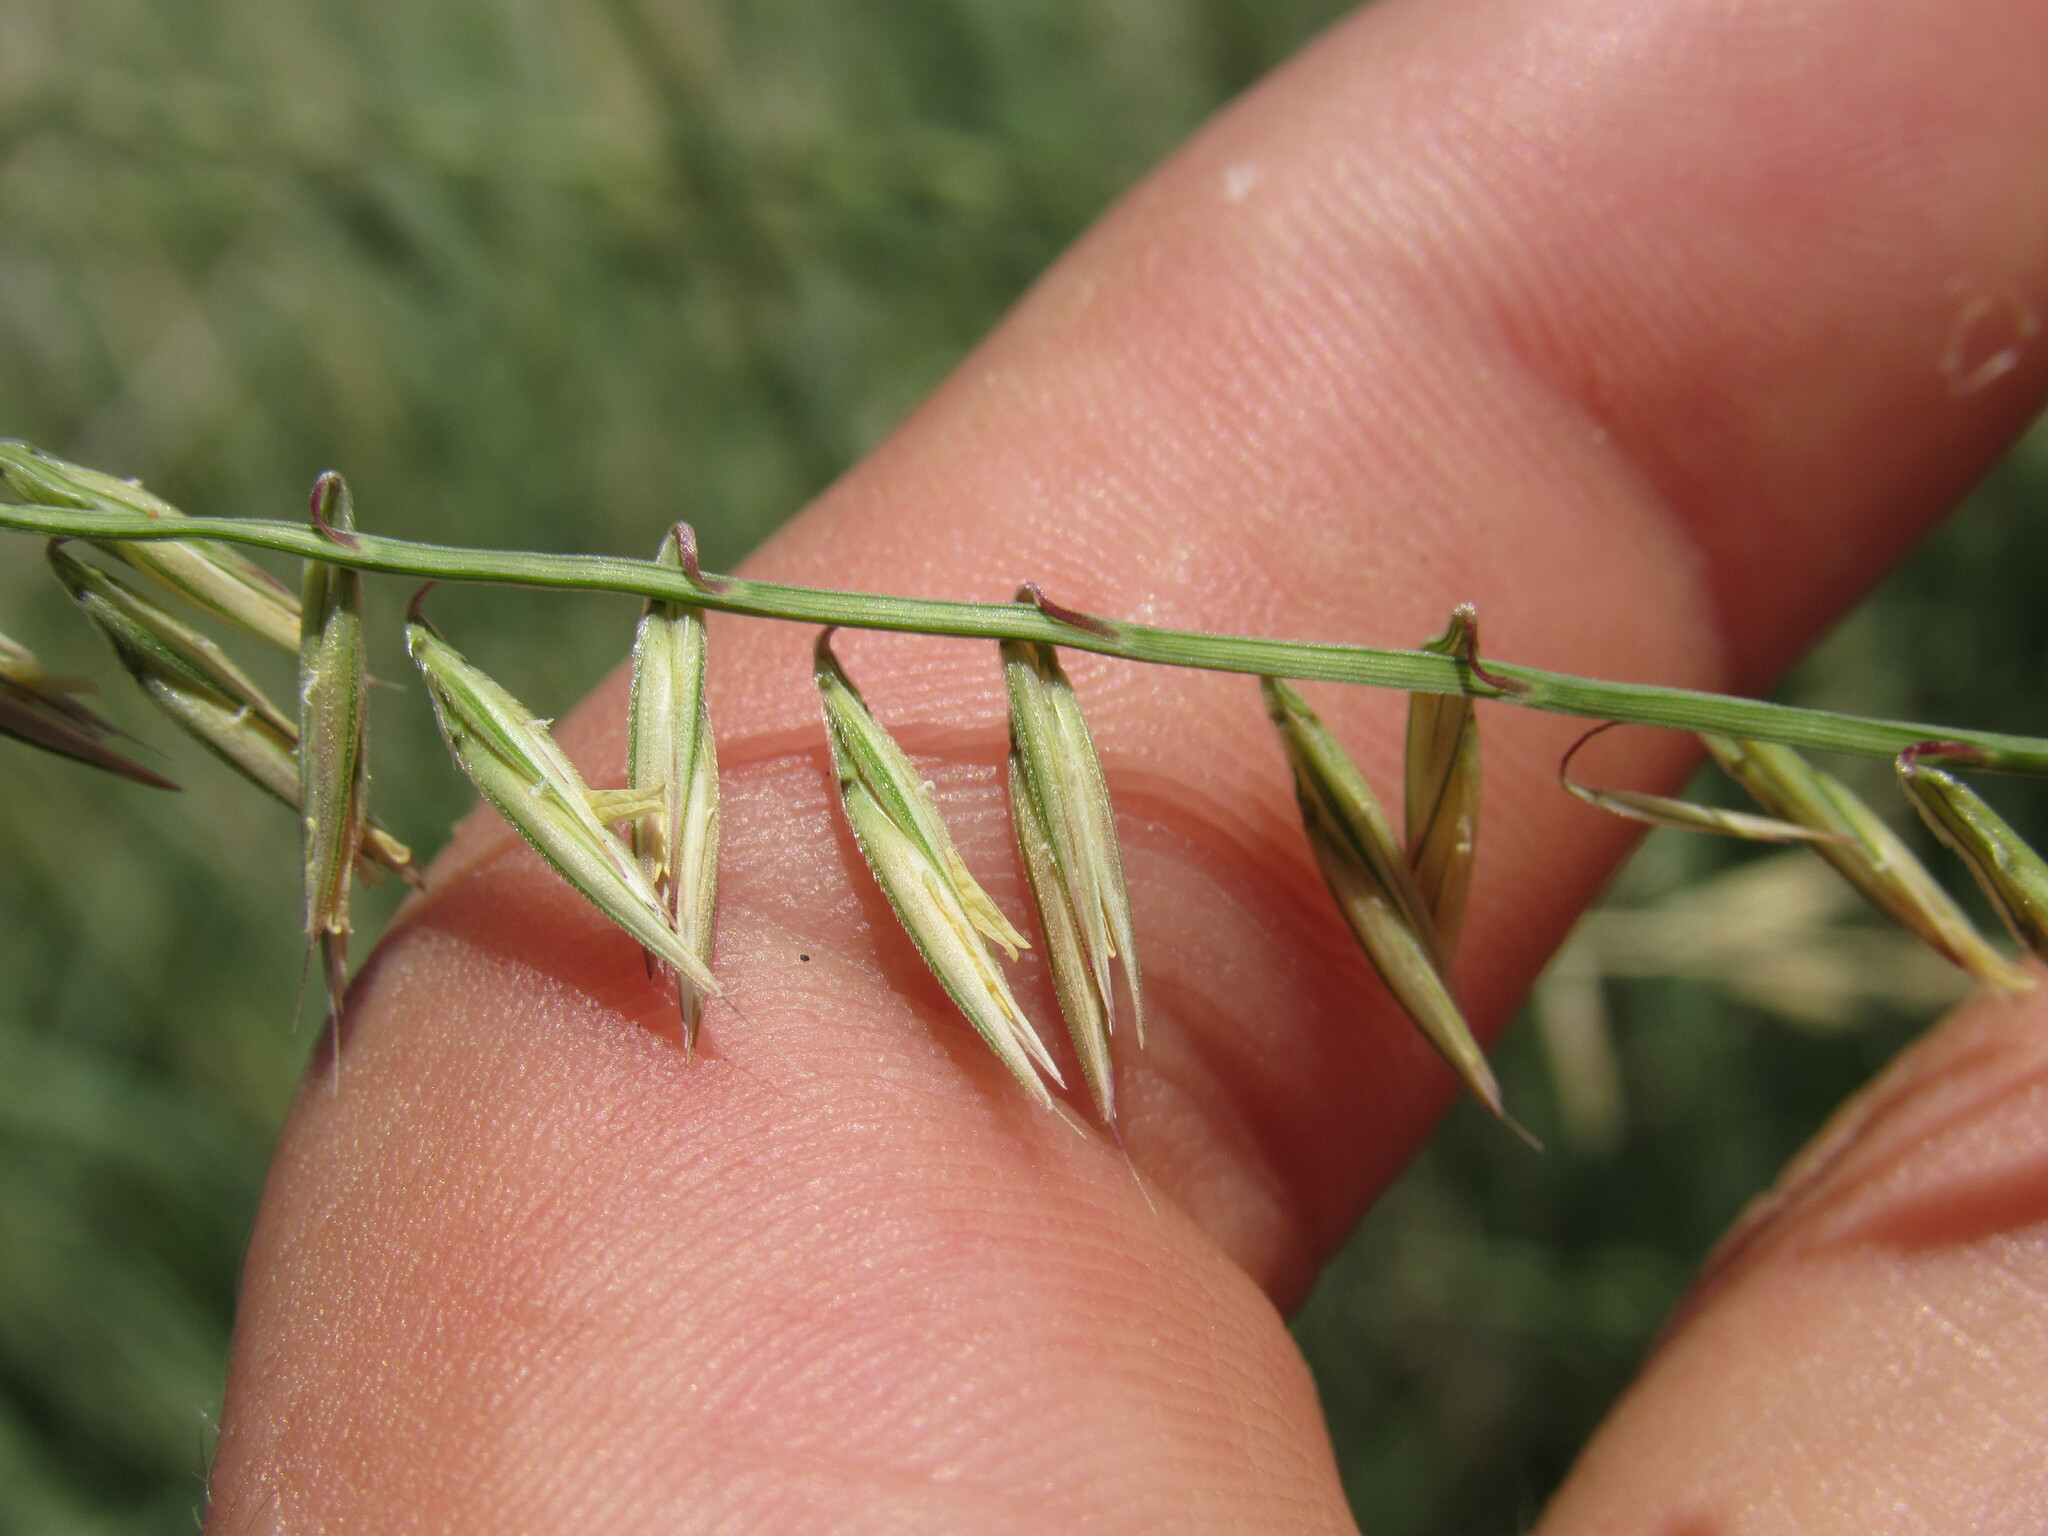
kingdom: Plantae
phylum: Tracheophyta
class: Liliopsida
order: Poales
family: Poaceae
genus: Bouteloua
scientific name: Bouteloua curtipendula
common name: Side-oats grama
